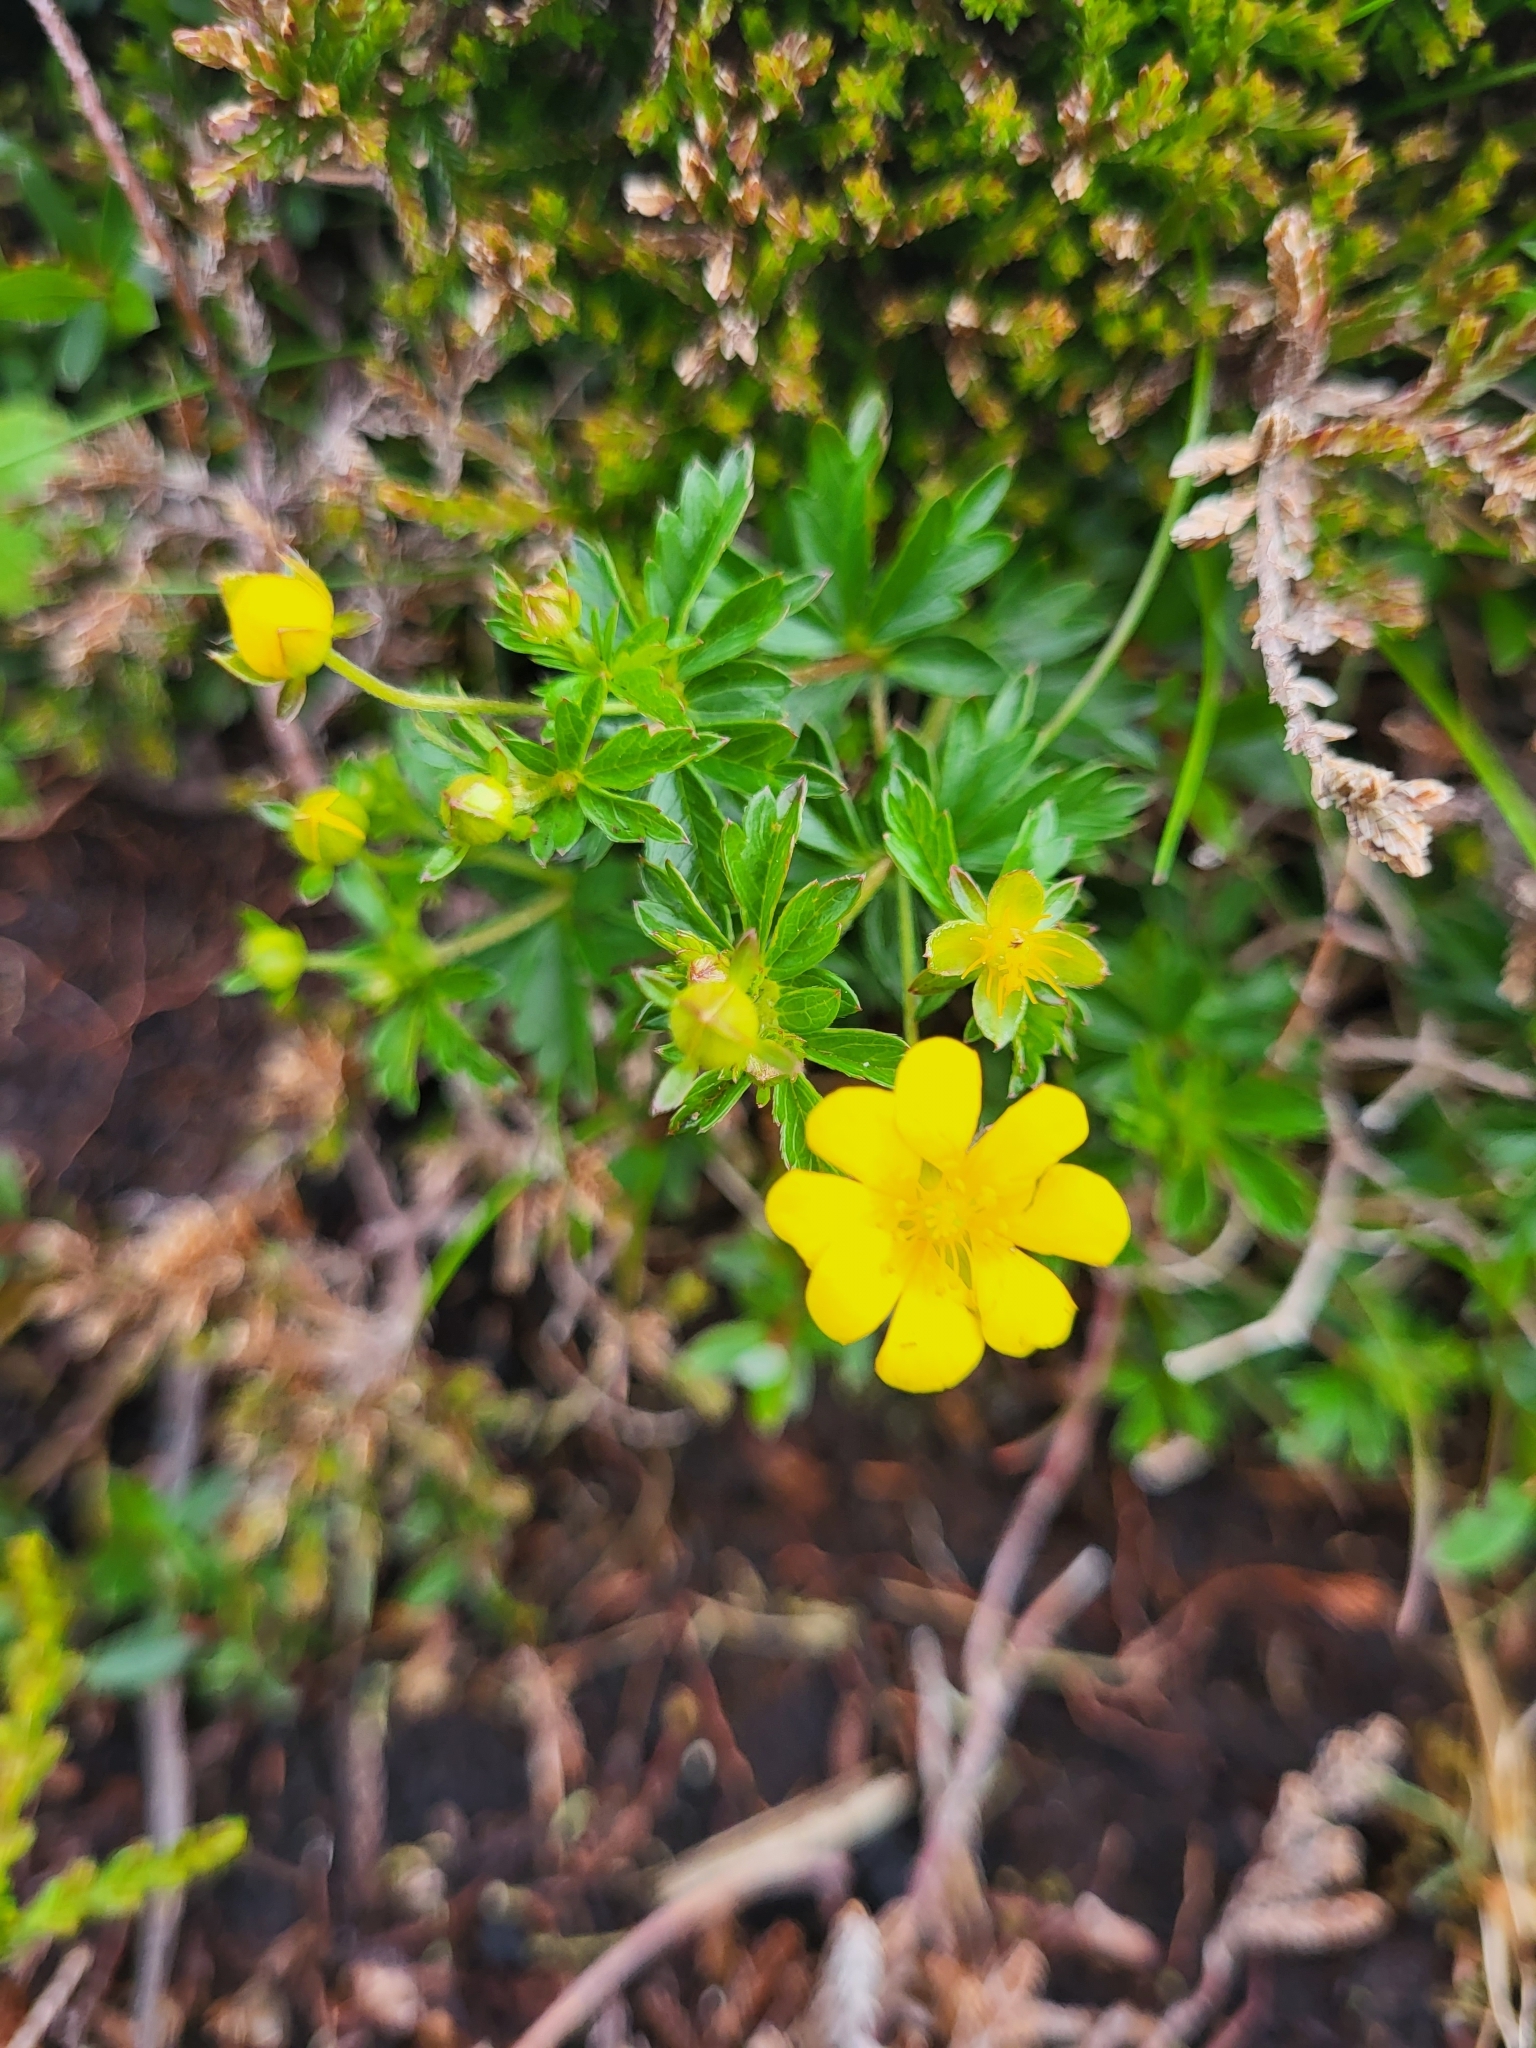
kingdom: Plantae
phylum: Tracheophyta
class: Magnoliopsida
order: Rosales
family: Rosaceae
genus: Potentilla
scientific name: Potentilla erecta
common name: Tormentil
